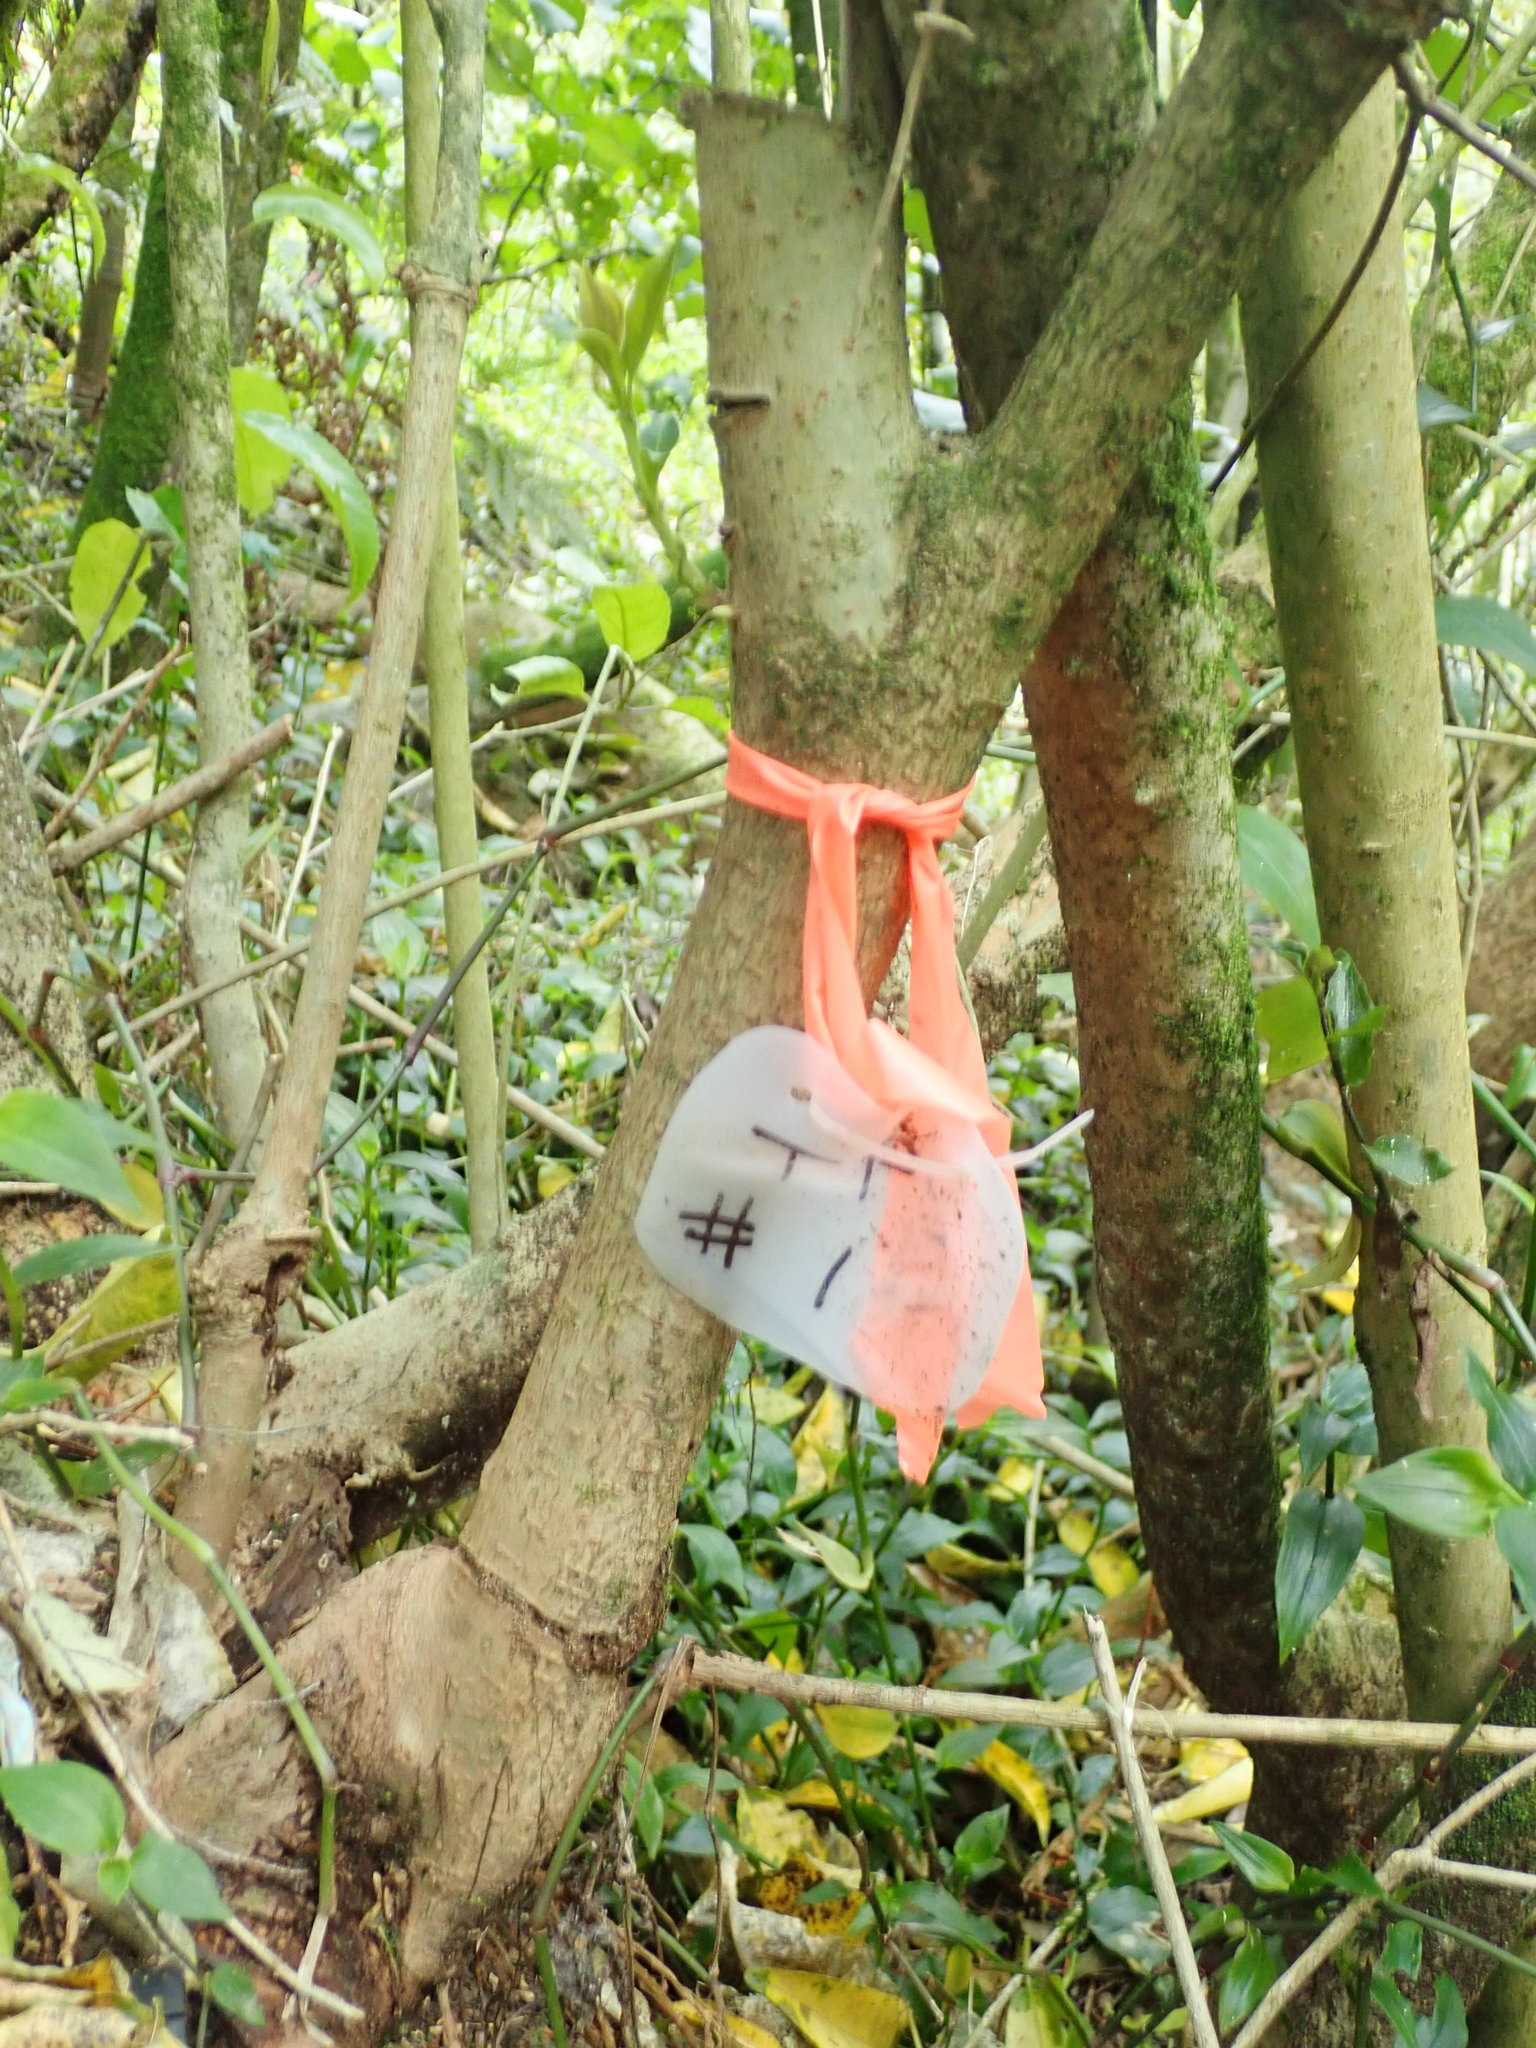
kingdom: Plantae
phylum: Tracheophyta
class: Magnoliopsida
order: Lamiales
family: Oleaceae
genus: Ligustrum
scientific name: Ligustrum lucidum
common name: Glossy privet
